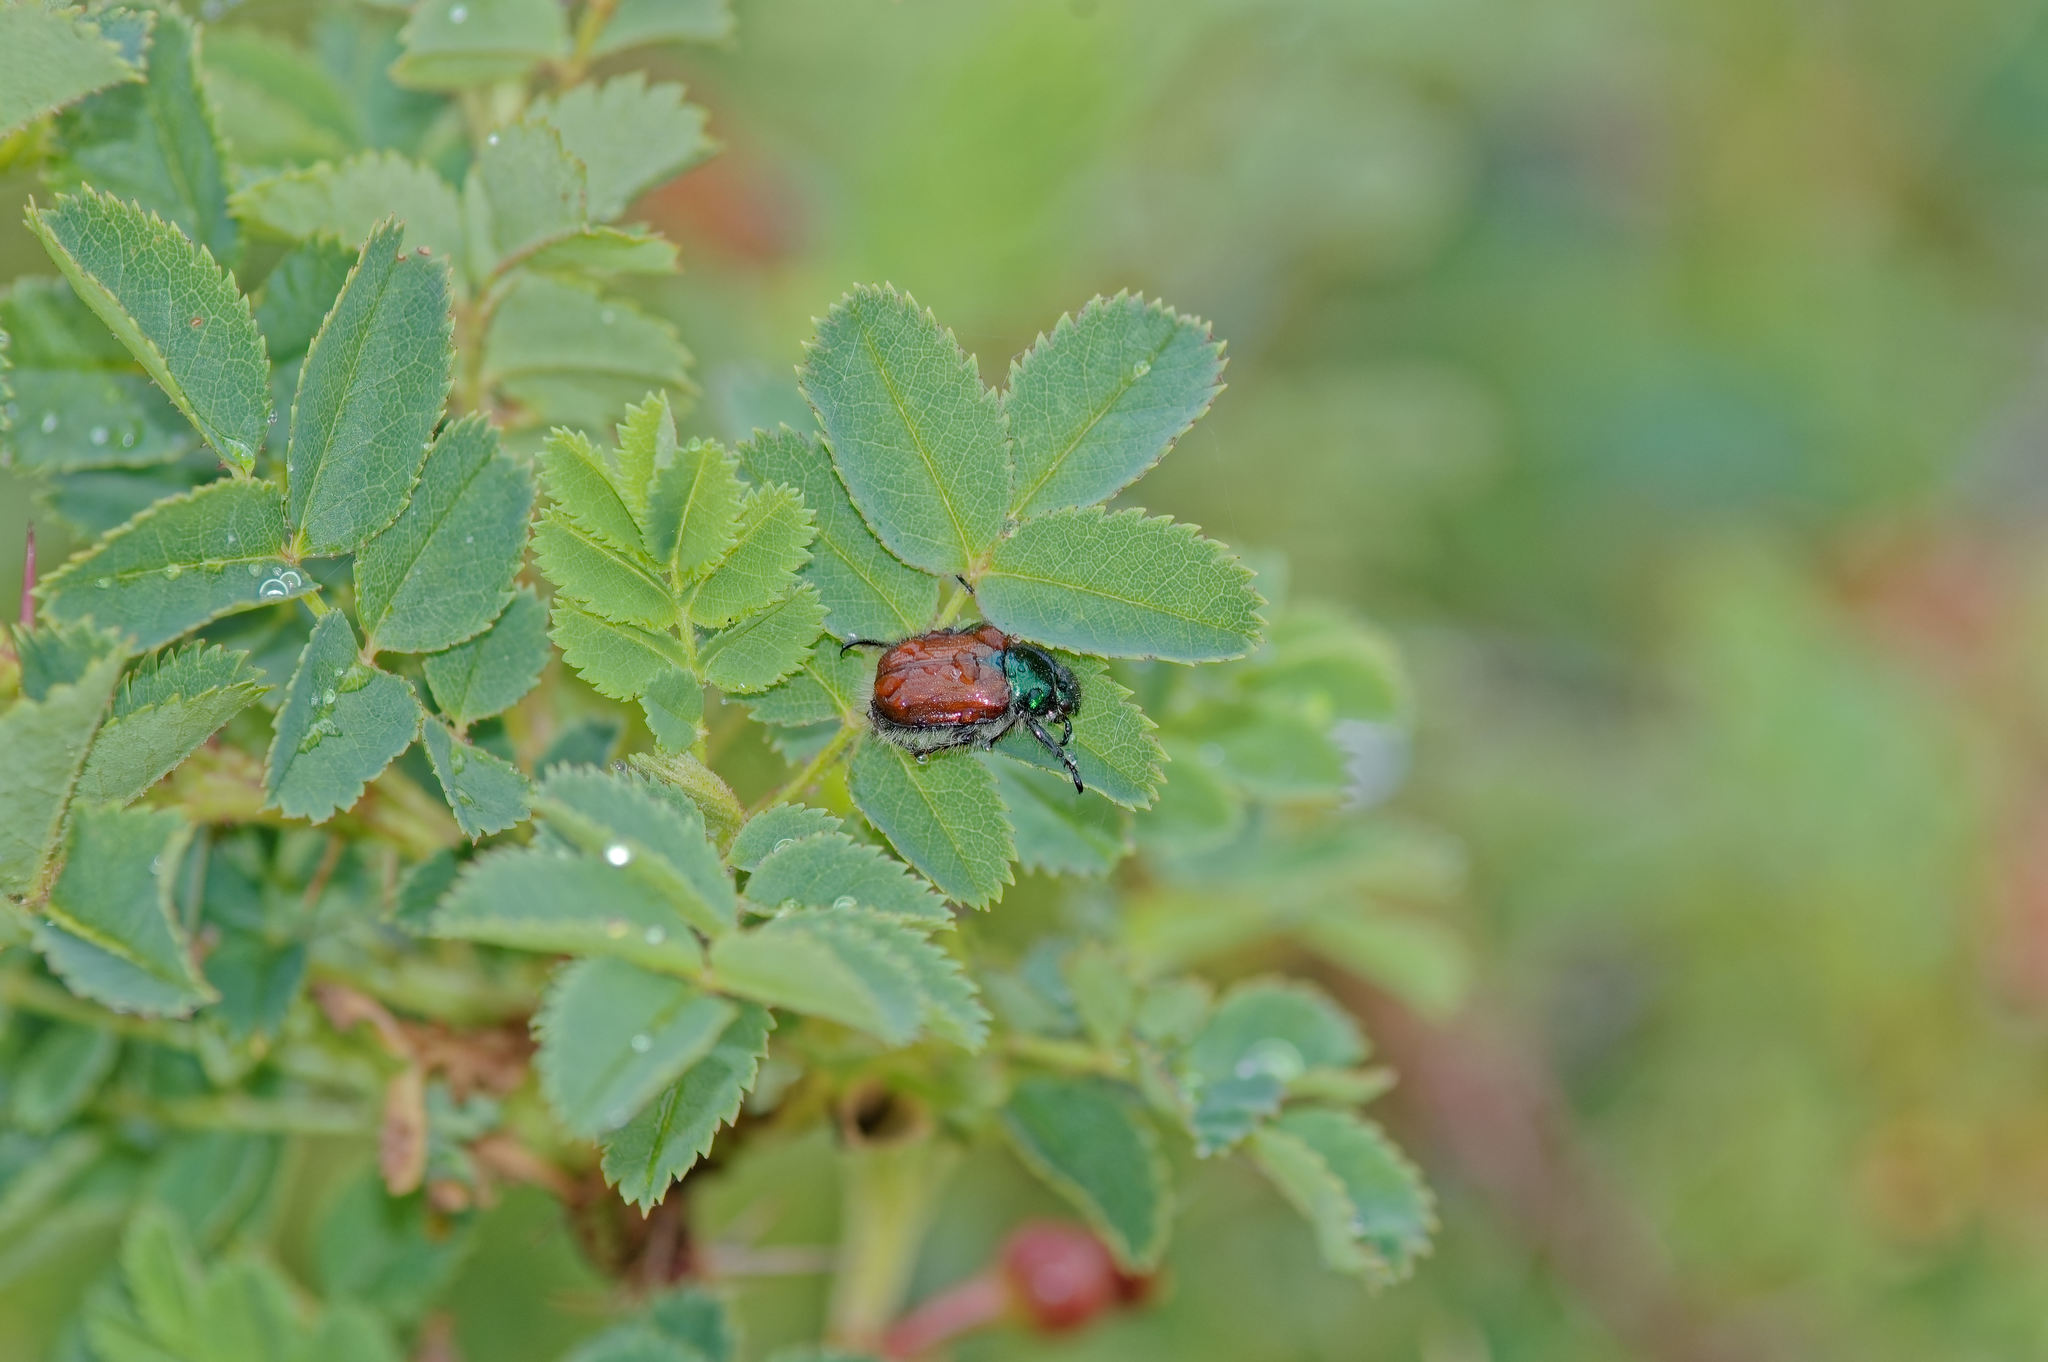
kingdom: Animalia
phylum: Arthropoda
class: Insecta
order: Coleoptera
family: Scarabaeidae
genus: Phyllopertha
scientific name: Phyllopertha horticola
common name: Garden chafer
